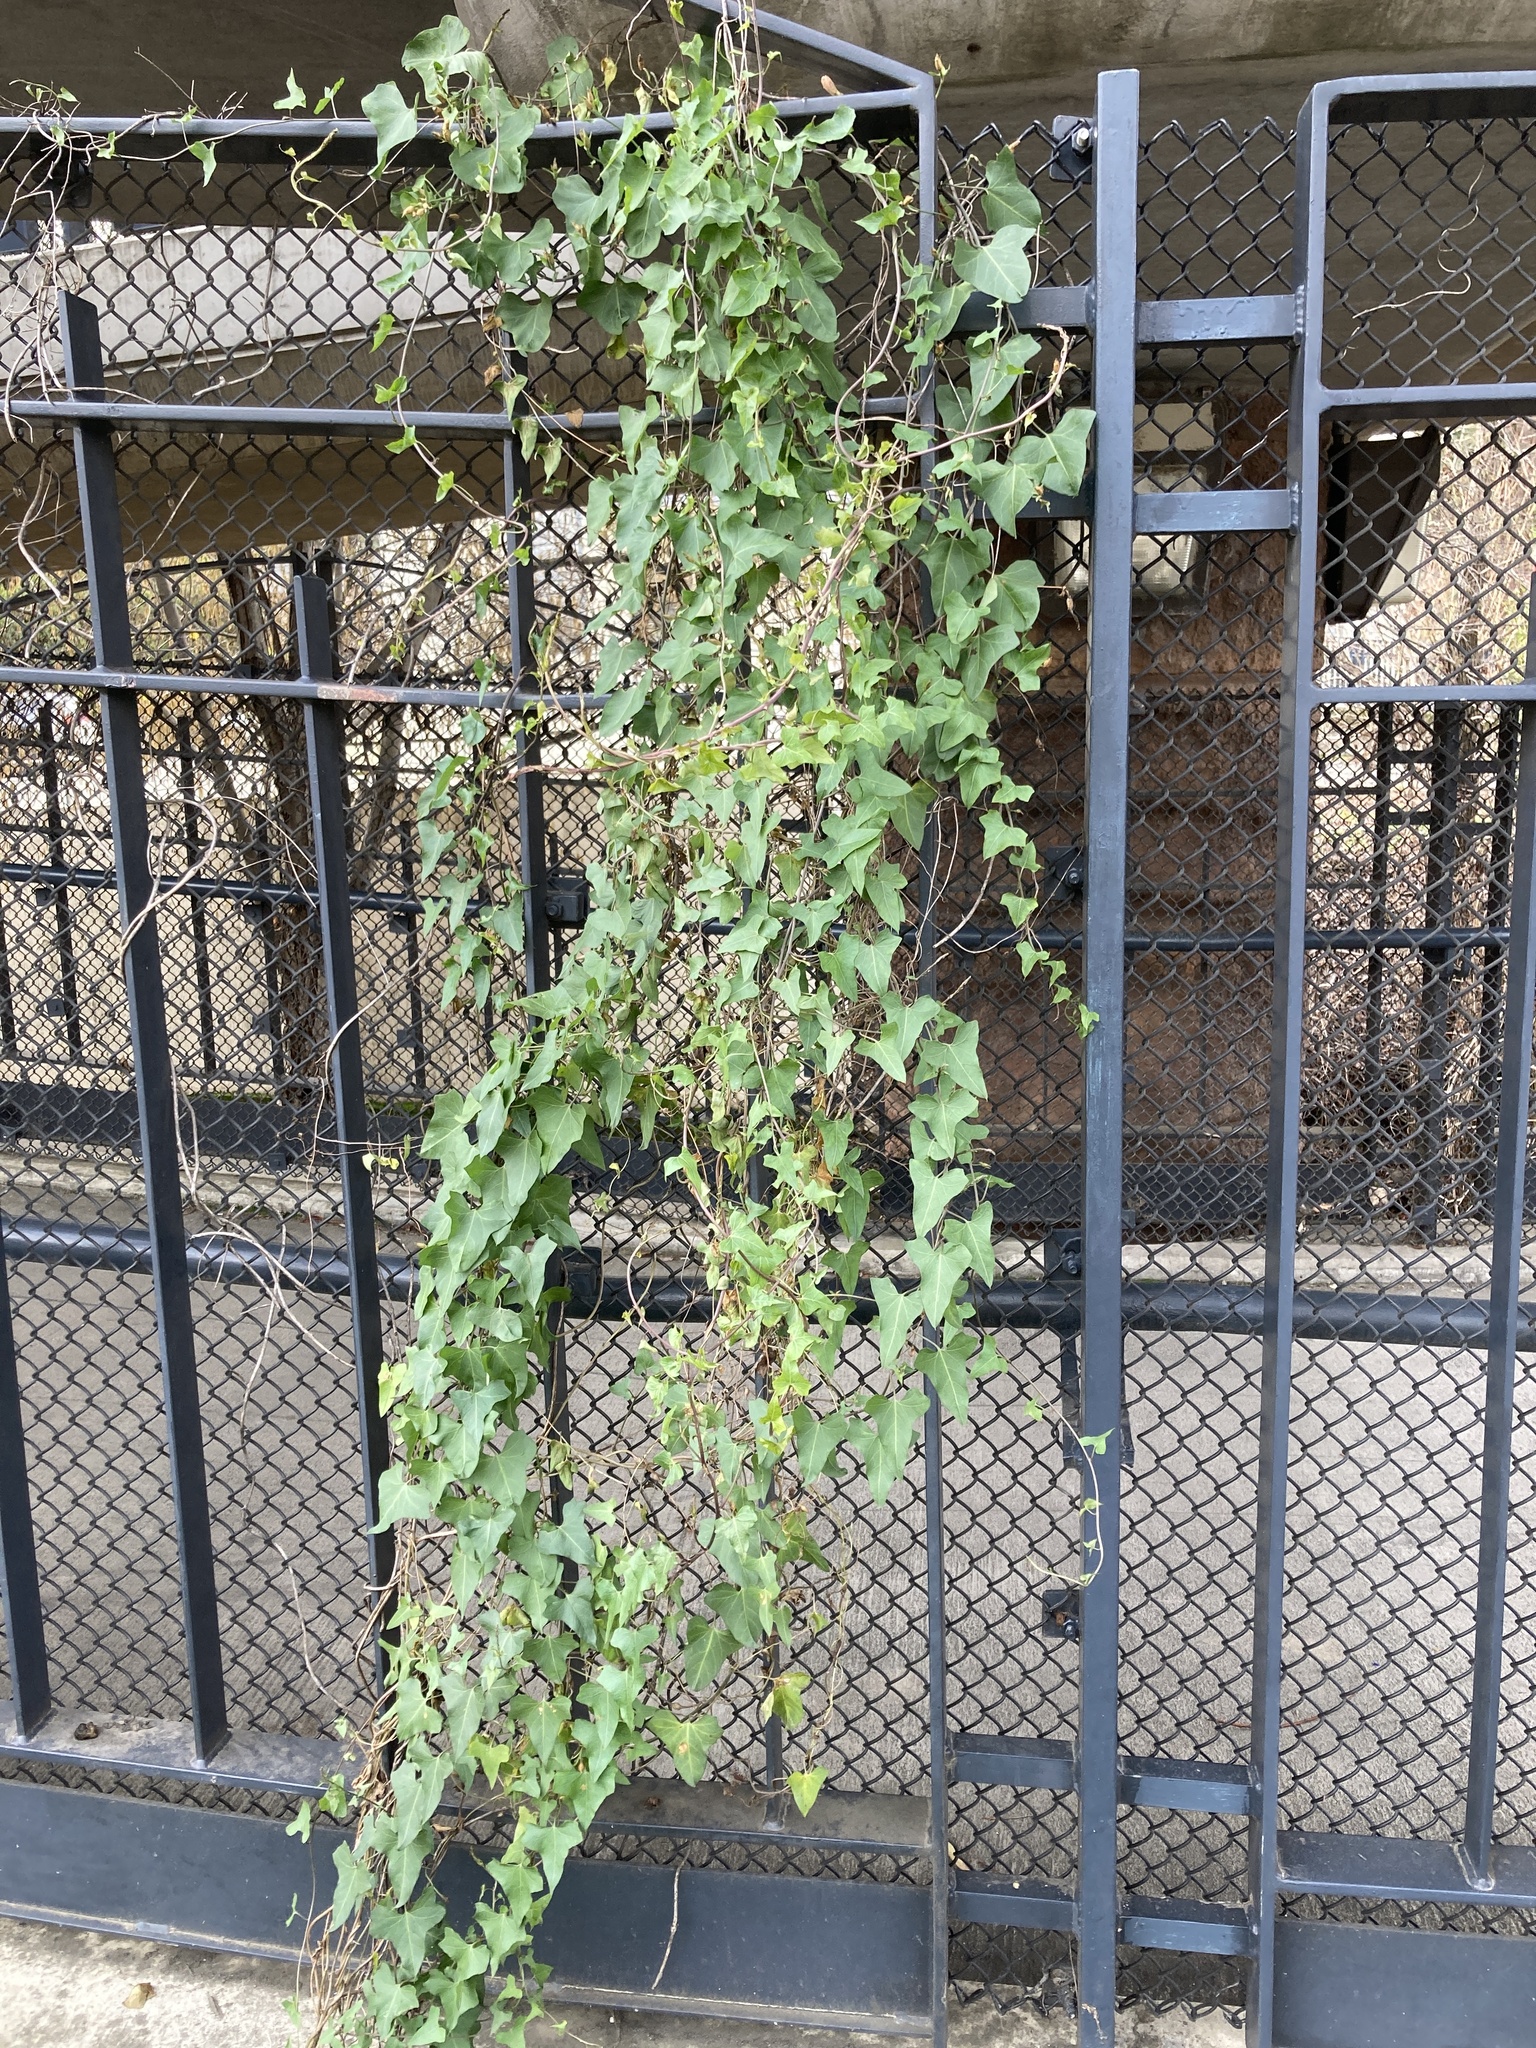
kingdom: Plantae
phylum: Tracheophyta
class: Magnoliopsida
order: Solanales
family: Convolvulaceae
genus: Calystegia
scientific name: Calystegia occidentalis
